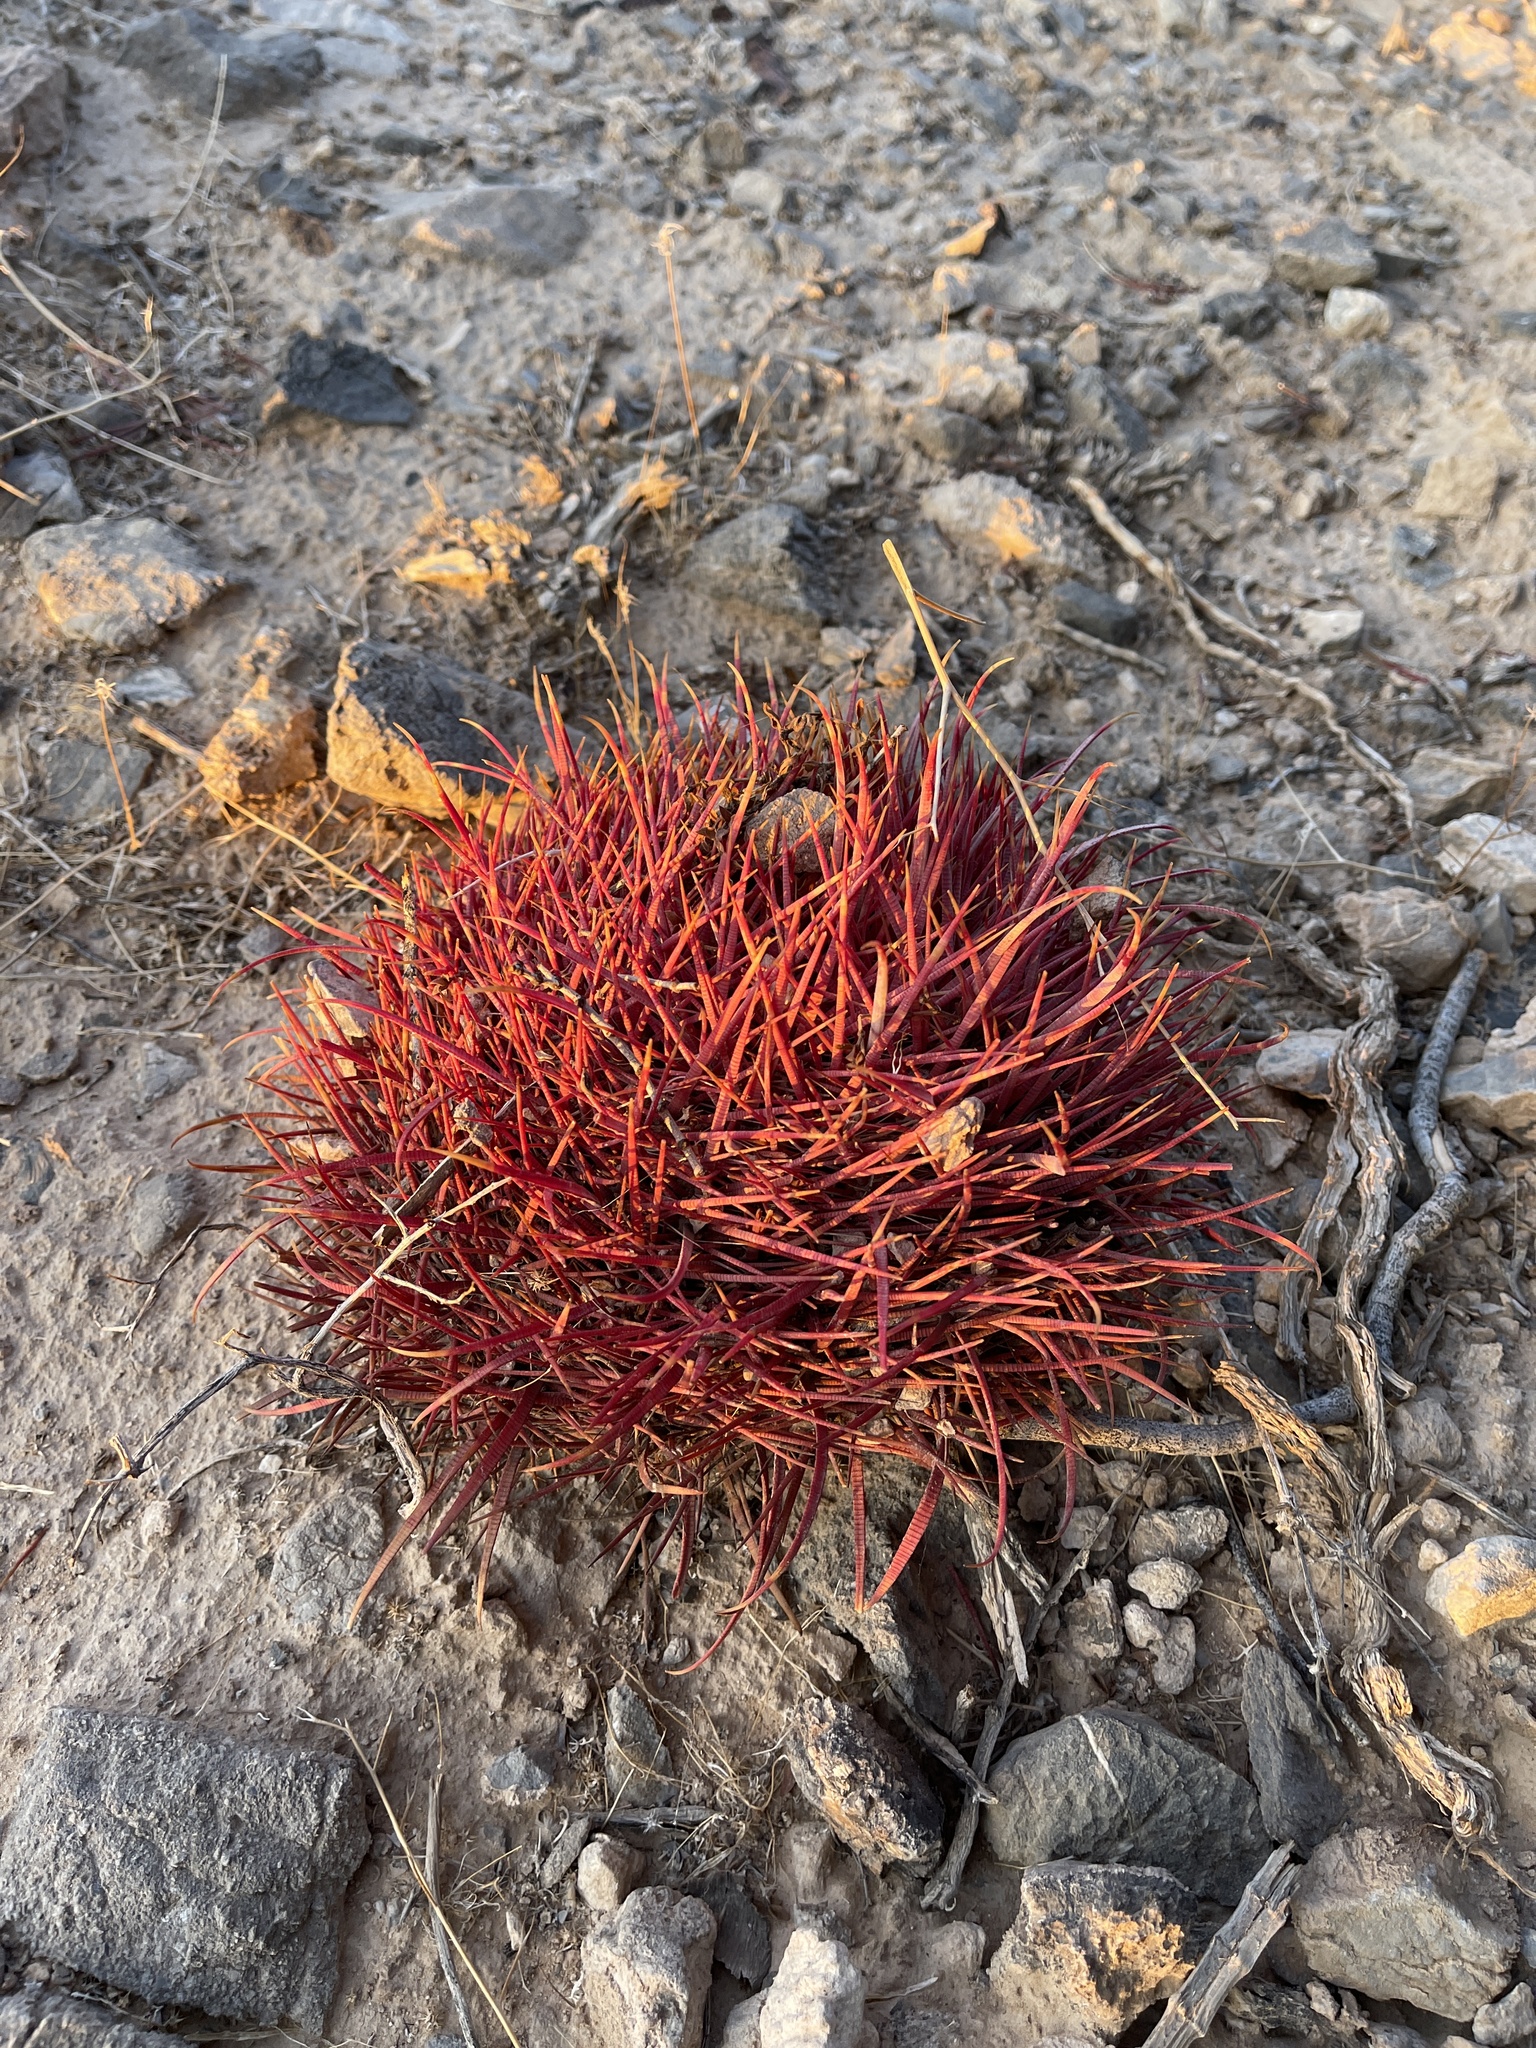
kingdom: Plantae
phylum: Tracheophyta
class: Magnoliopsida
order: Caryophyllales
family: Cactaceae
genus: Ferocactus
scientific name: Ferocactus cylindraceus
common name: California barrel cactus
